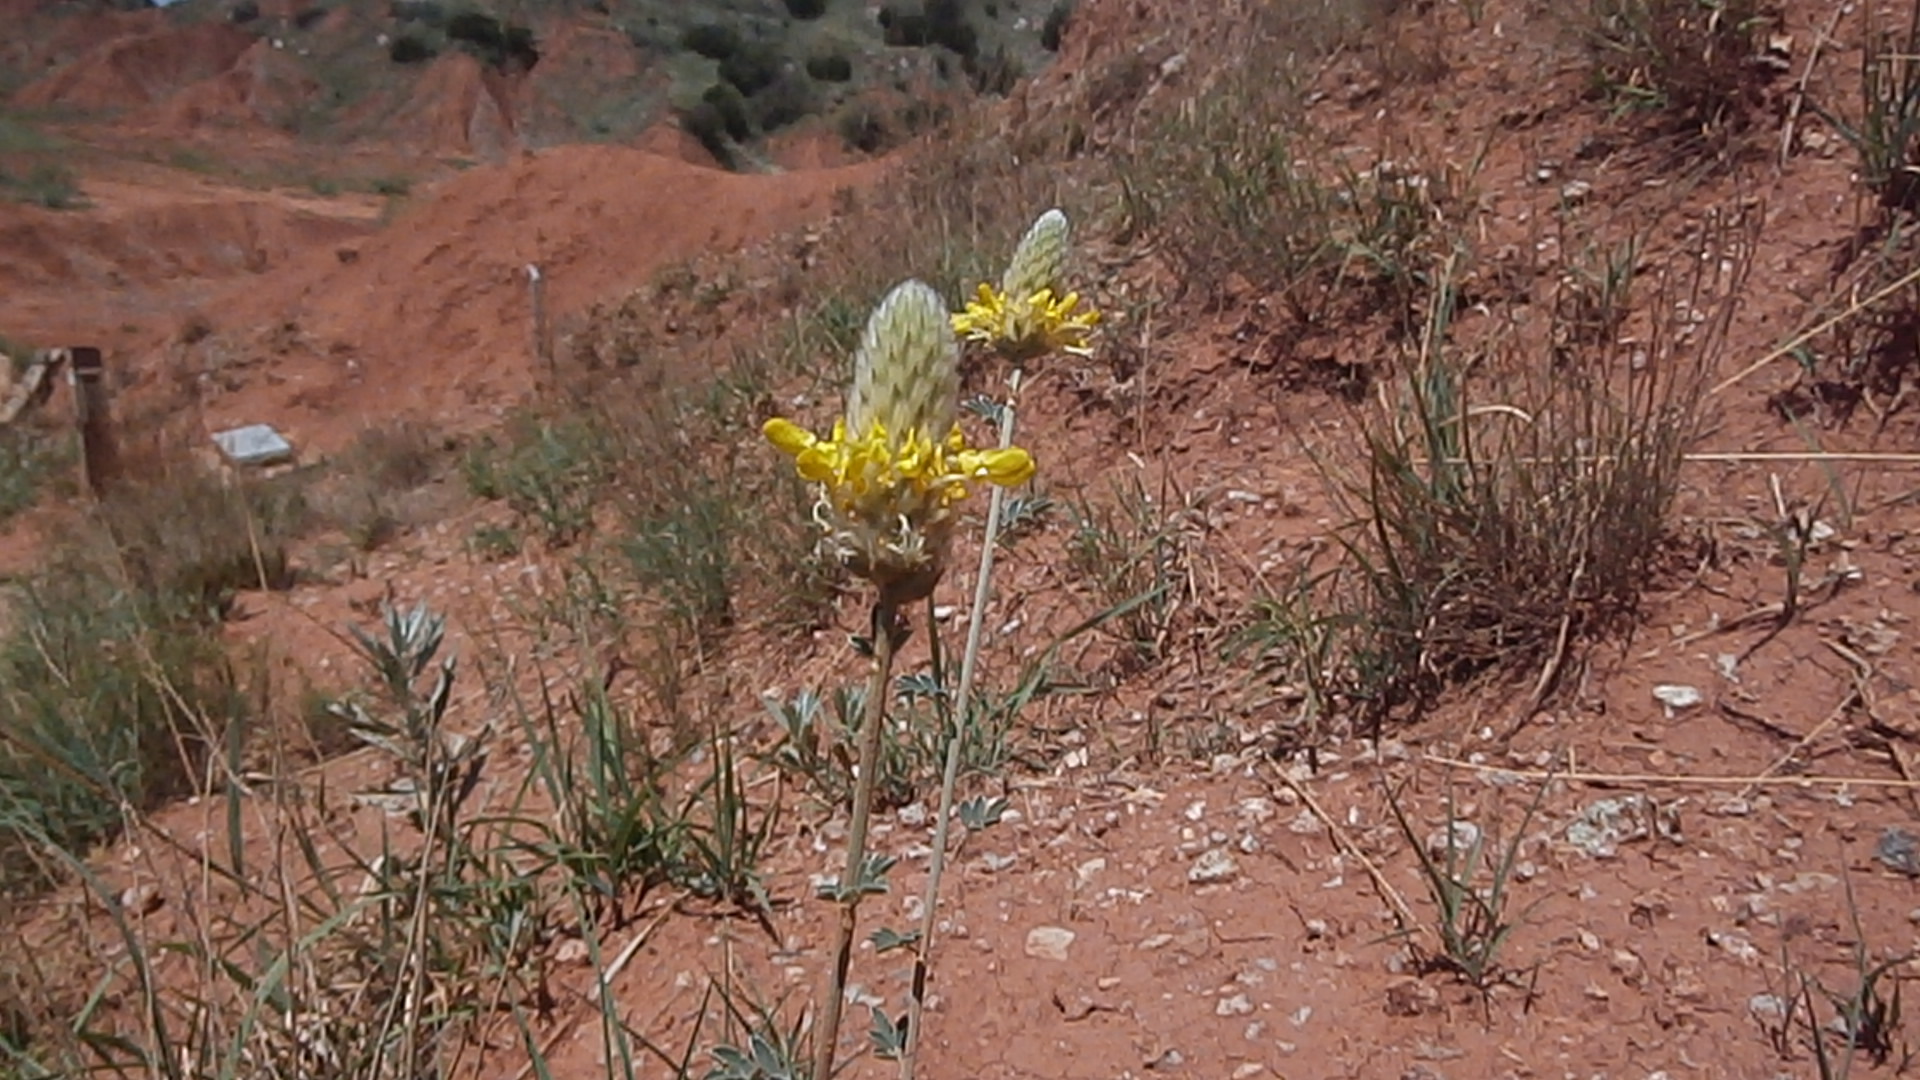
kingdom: Plantae
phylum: Tracheophyta
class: Magnoliopsida
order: Fabales
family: Fabaceae
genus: Dalea
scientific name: Dalea aurea
